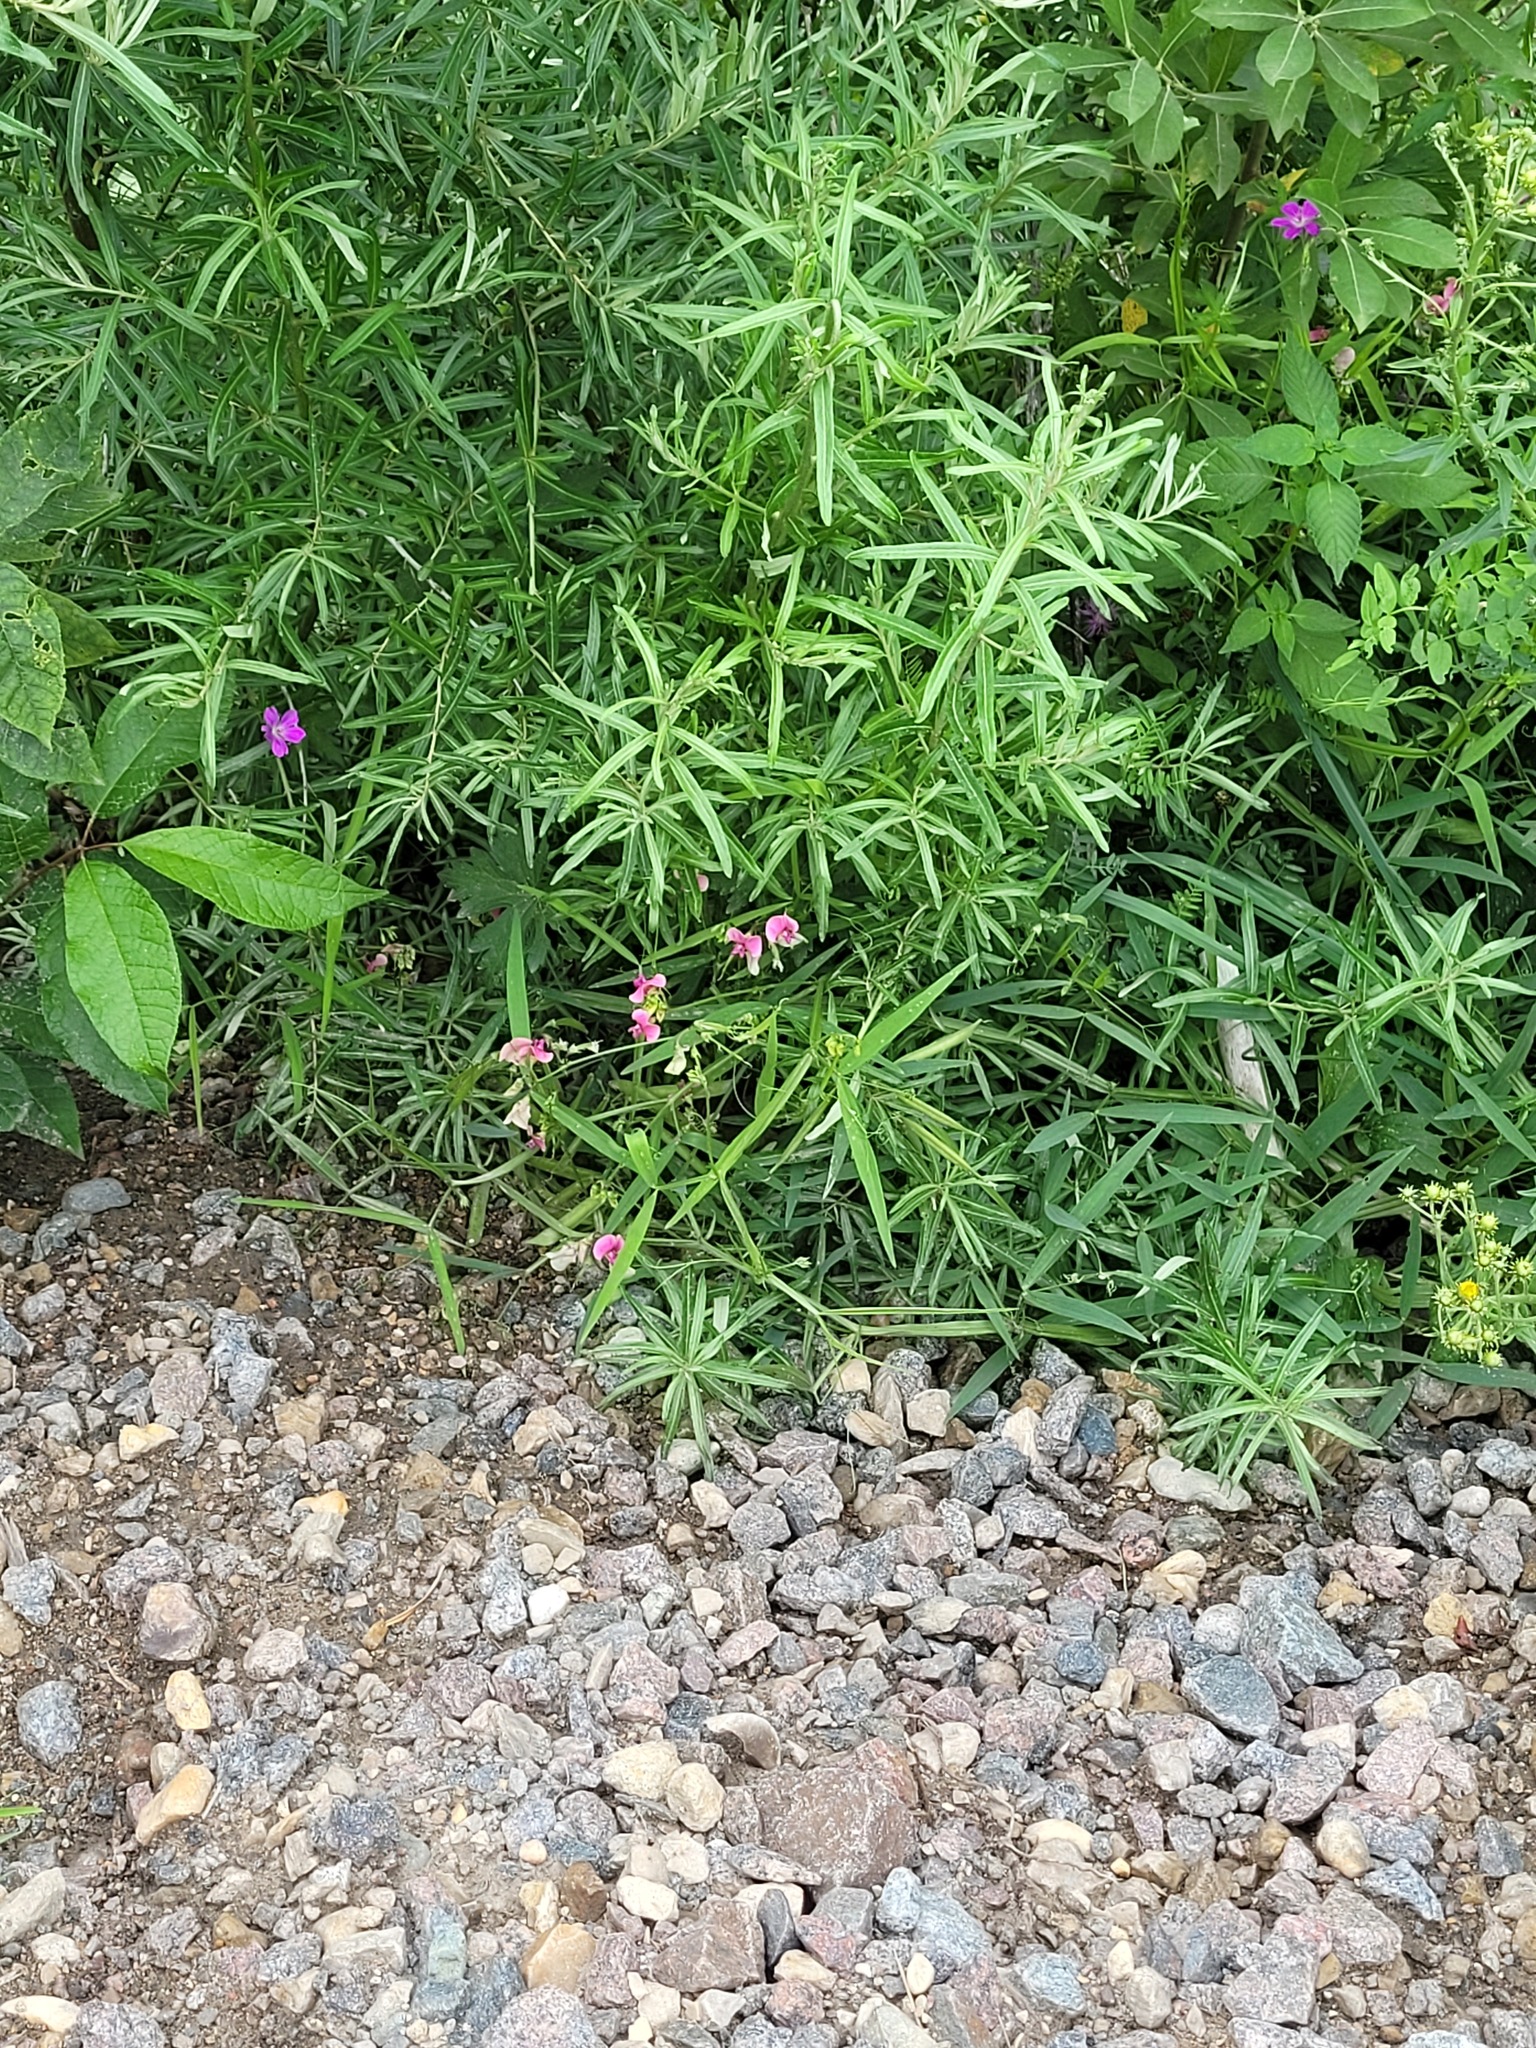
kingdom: Plantae
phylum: Tracheophyta
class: Magnoliopsida
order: Fabales
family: Fabaceae
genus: Lathyrus
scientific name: Lathyrus sylvestris
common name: Flat pea
